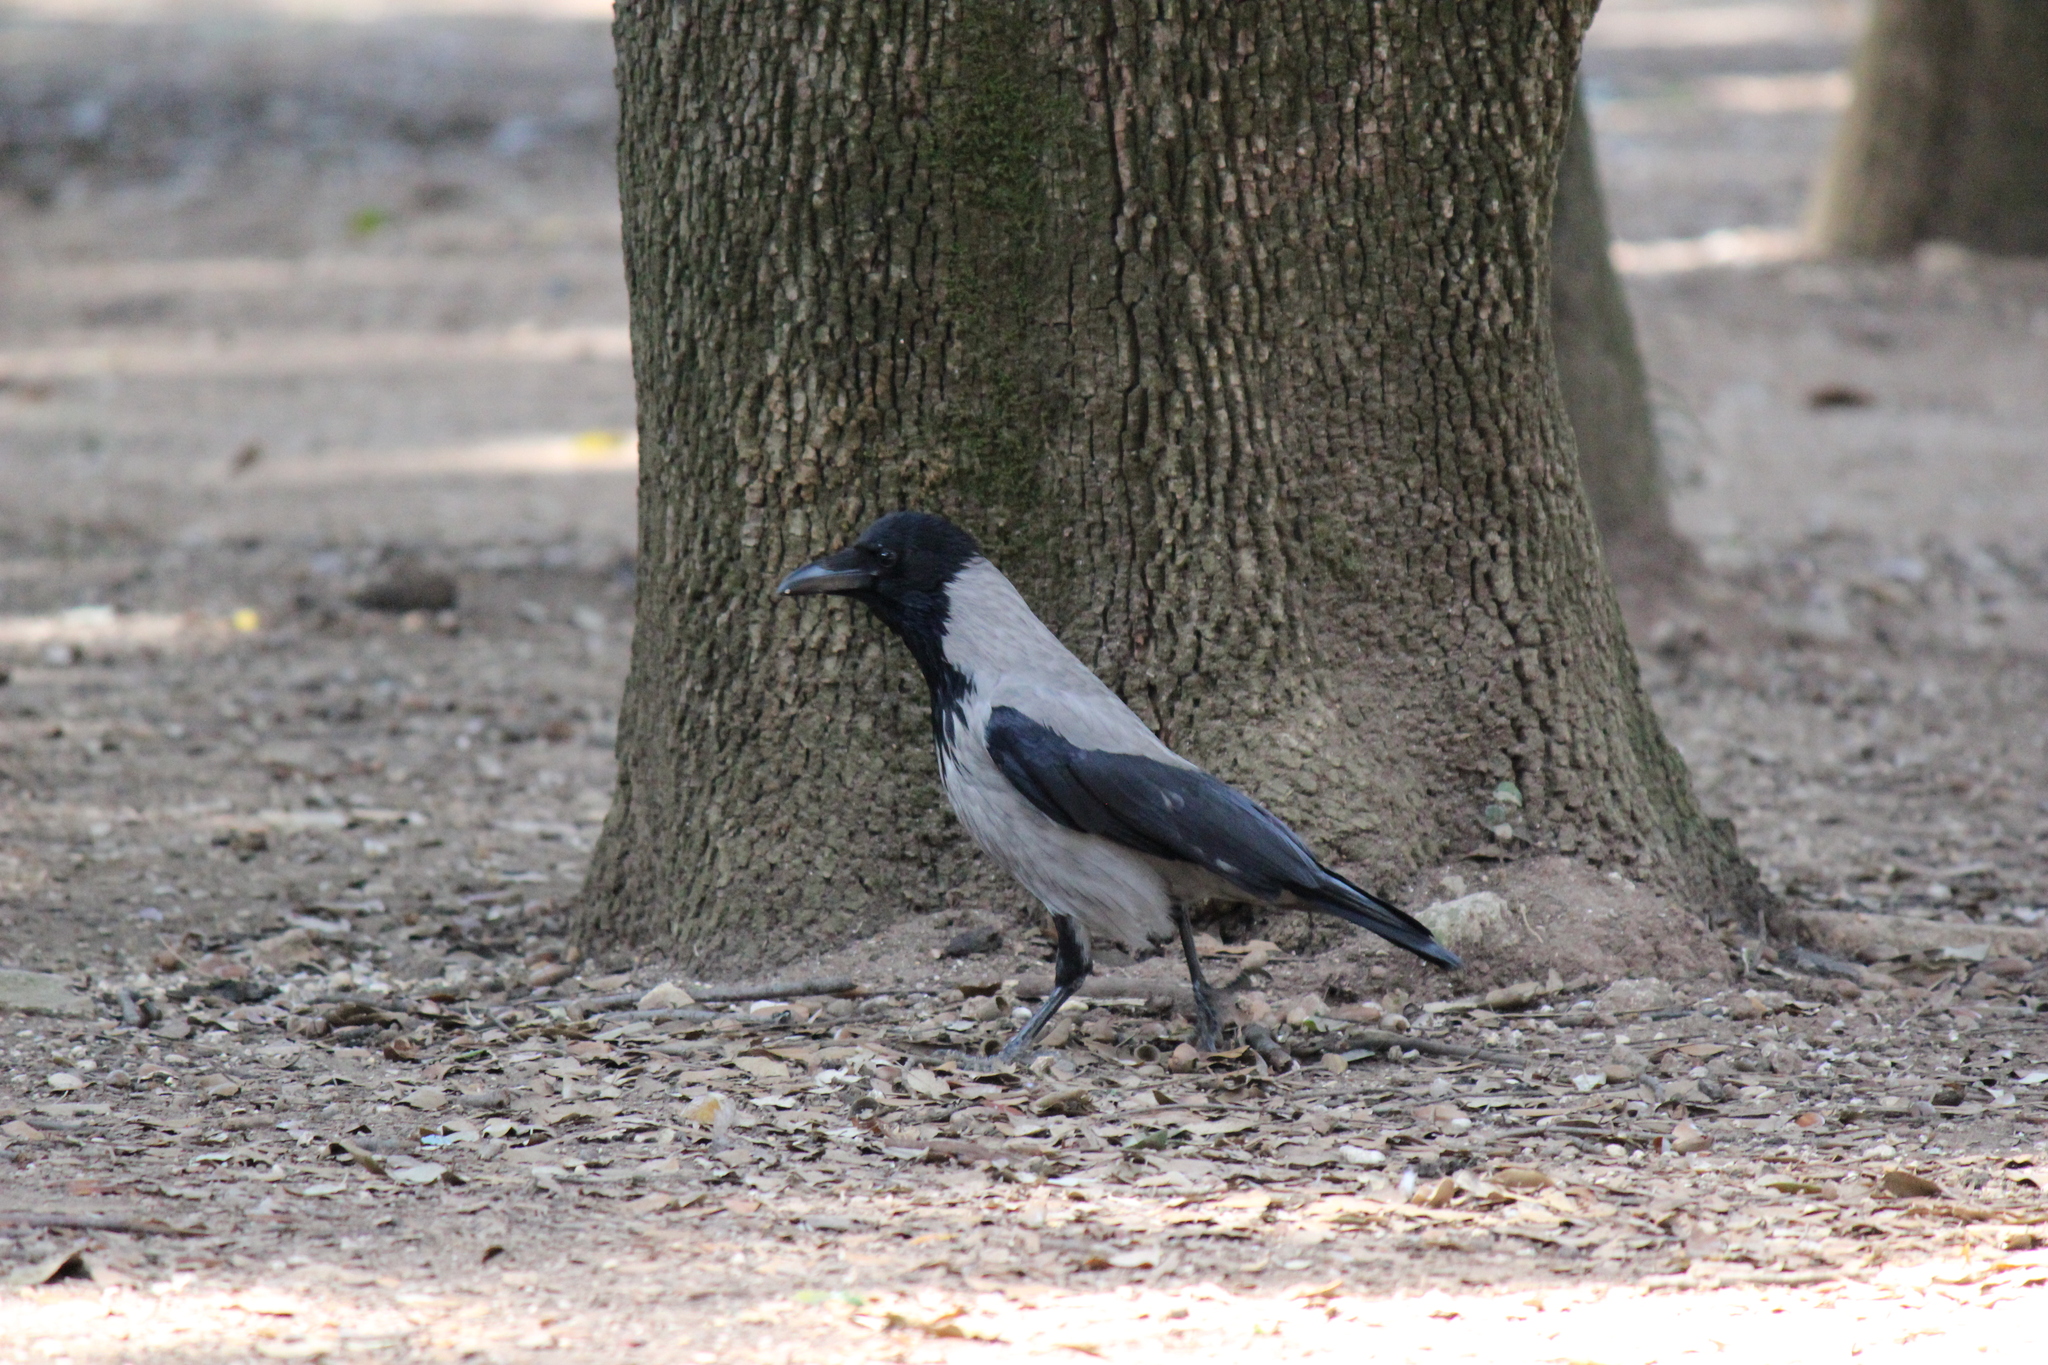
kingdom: Animalia
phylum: Chordata
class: Aves
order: Passeriformes
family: Corvidae
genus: Corvus
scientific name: Corvus cornix
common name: Hooded crow
